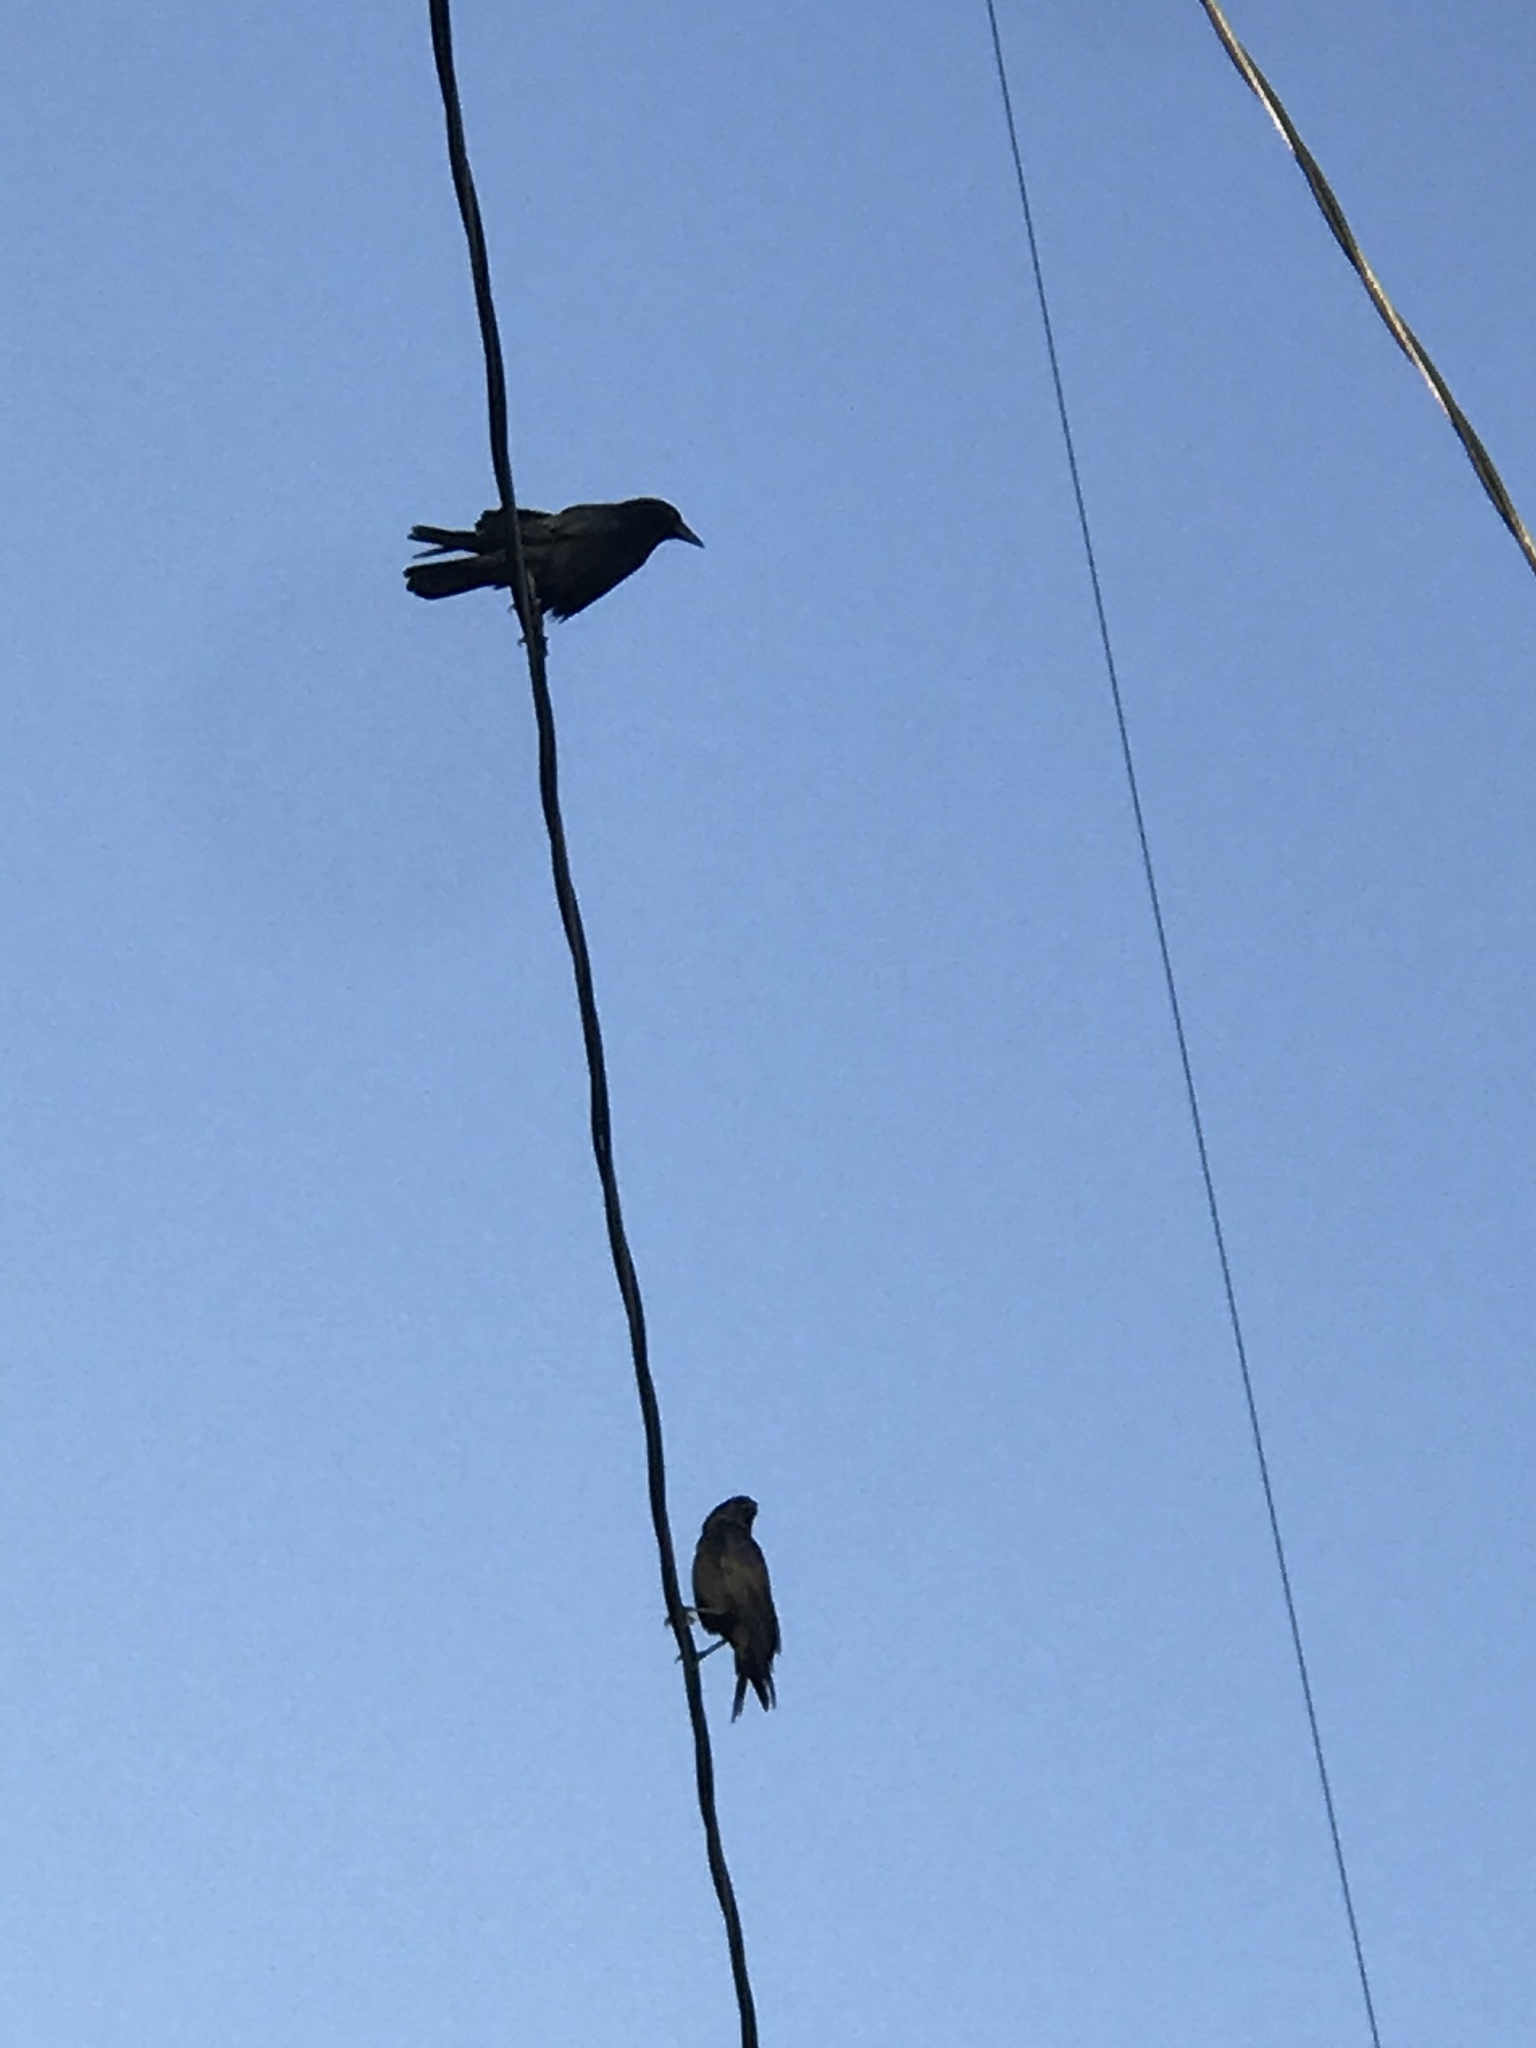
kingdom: Animalia
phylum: Chordata
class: Aves
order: Passeriformes
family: Corvidae
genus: Corvus
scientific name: Corvus brachyrhynchos
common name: American crow
